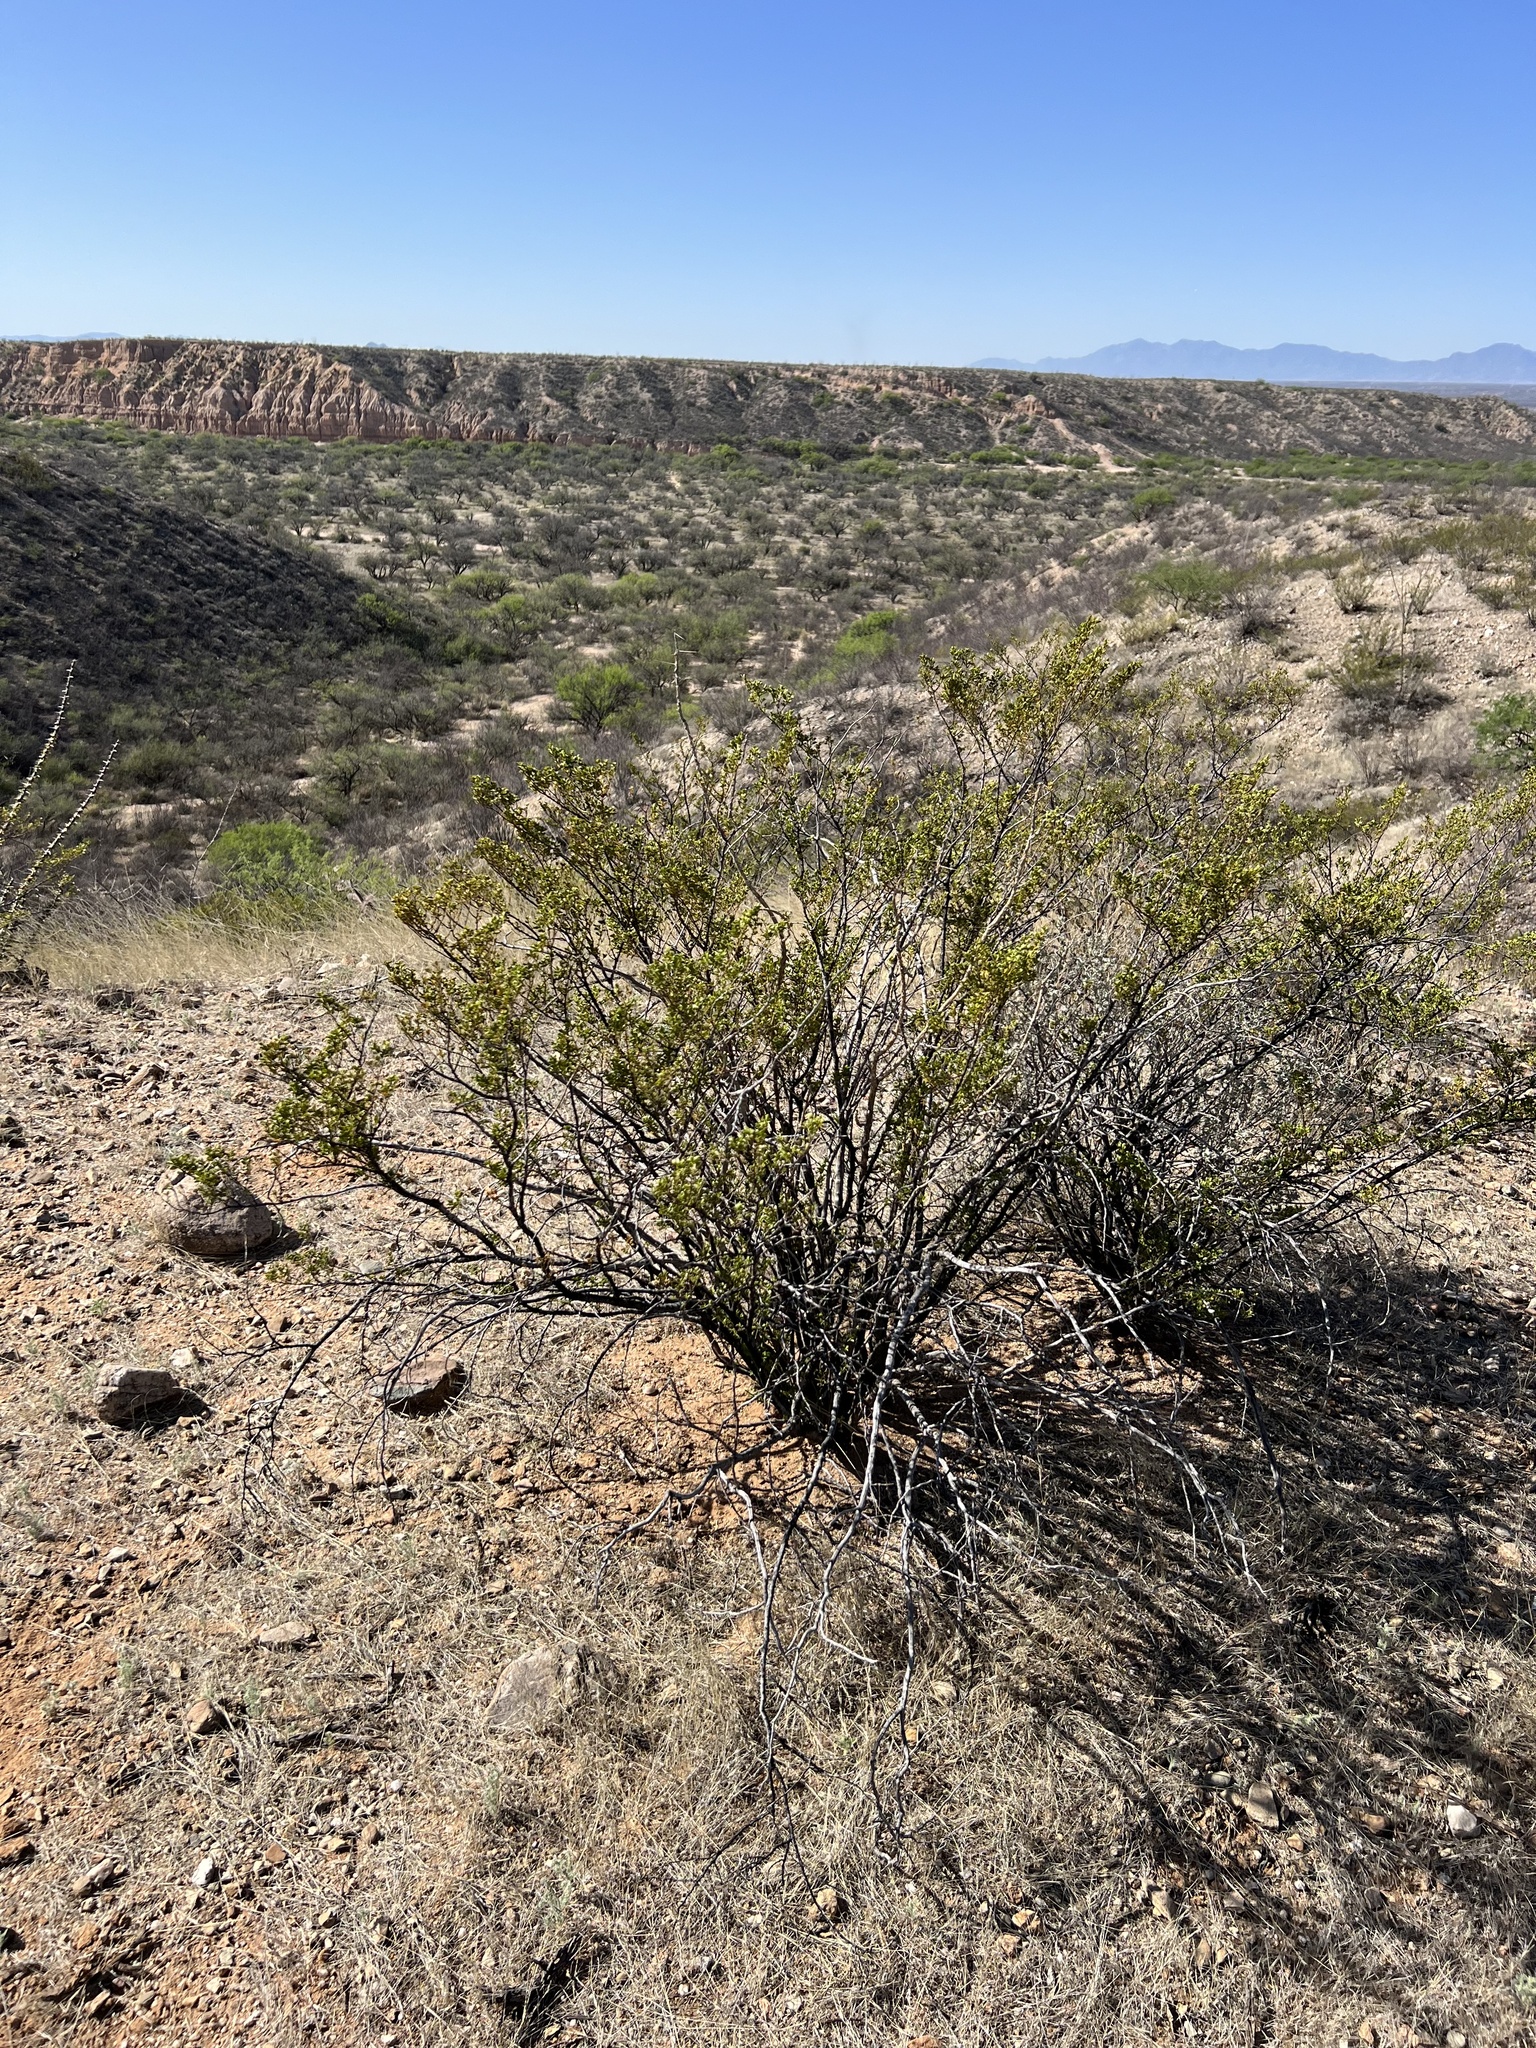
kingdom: Plantae
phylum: Tracheophyta
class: Magnoliopsida
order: Zygophyllales
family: Zygophyllaceae
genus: Larrea
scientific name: Larrea tridentata
